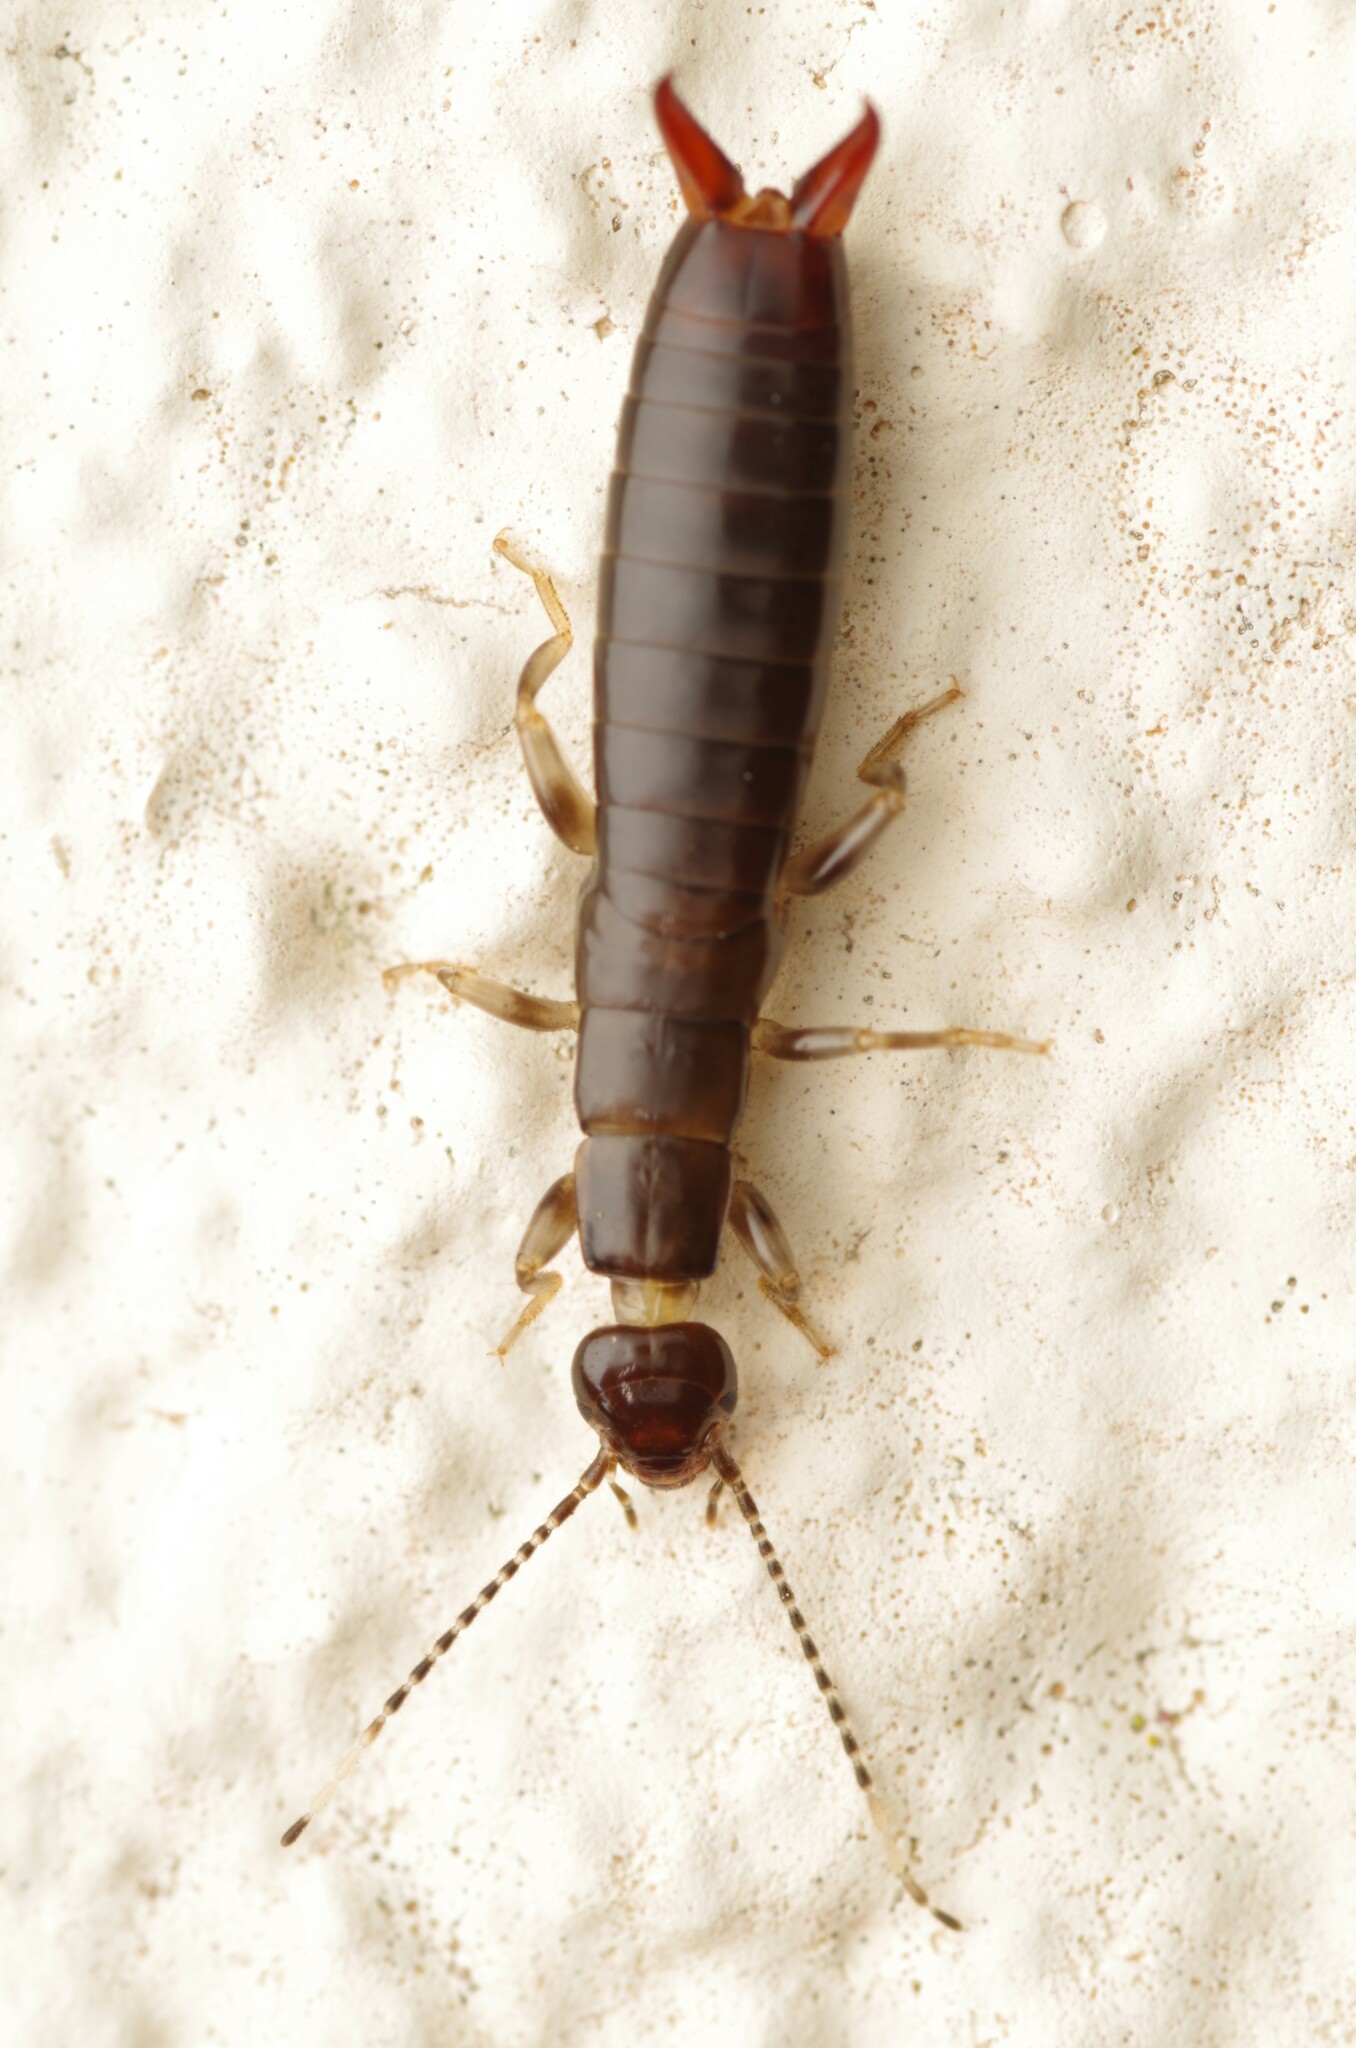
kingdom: Animalia
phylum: Arthropoda
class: Insecta
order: Dermaptera
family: Anisolabididae
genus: Euborellia
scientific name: Euborellia annulipes
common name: Ringlegged earwig
